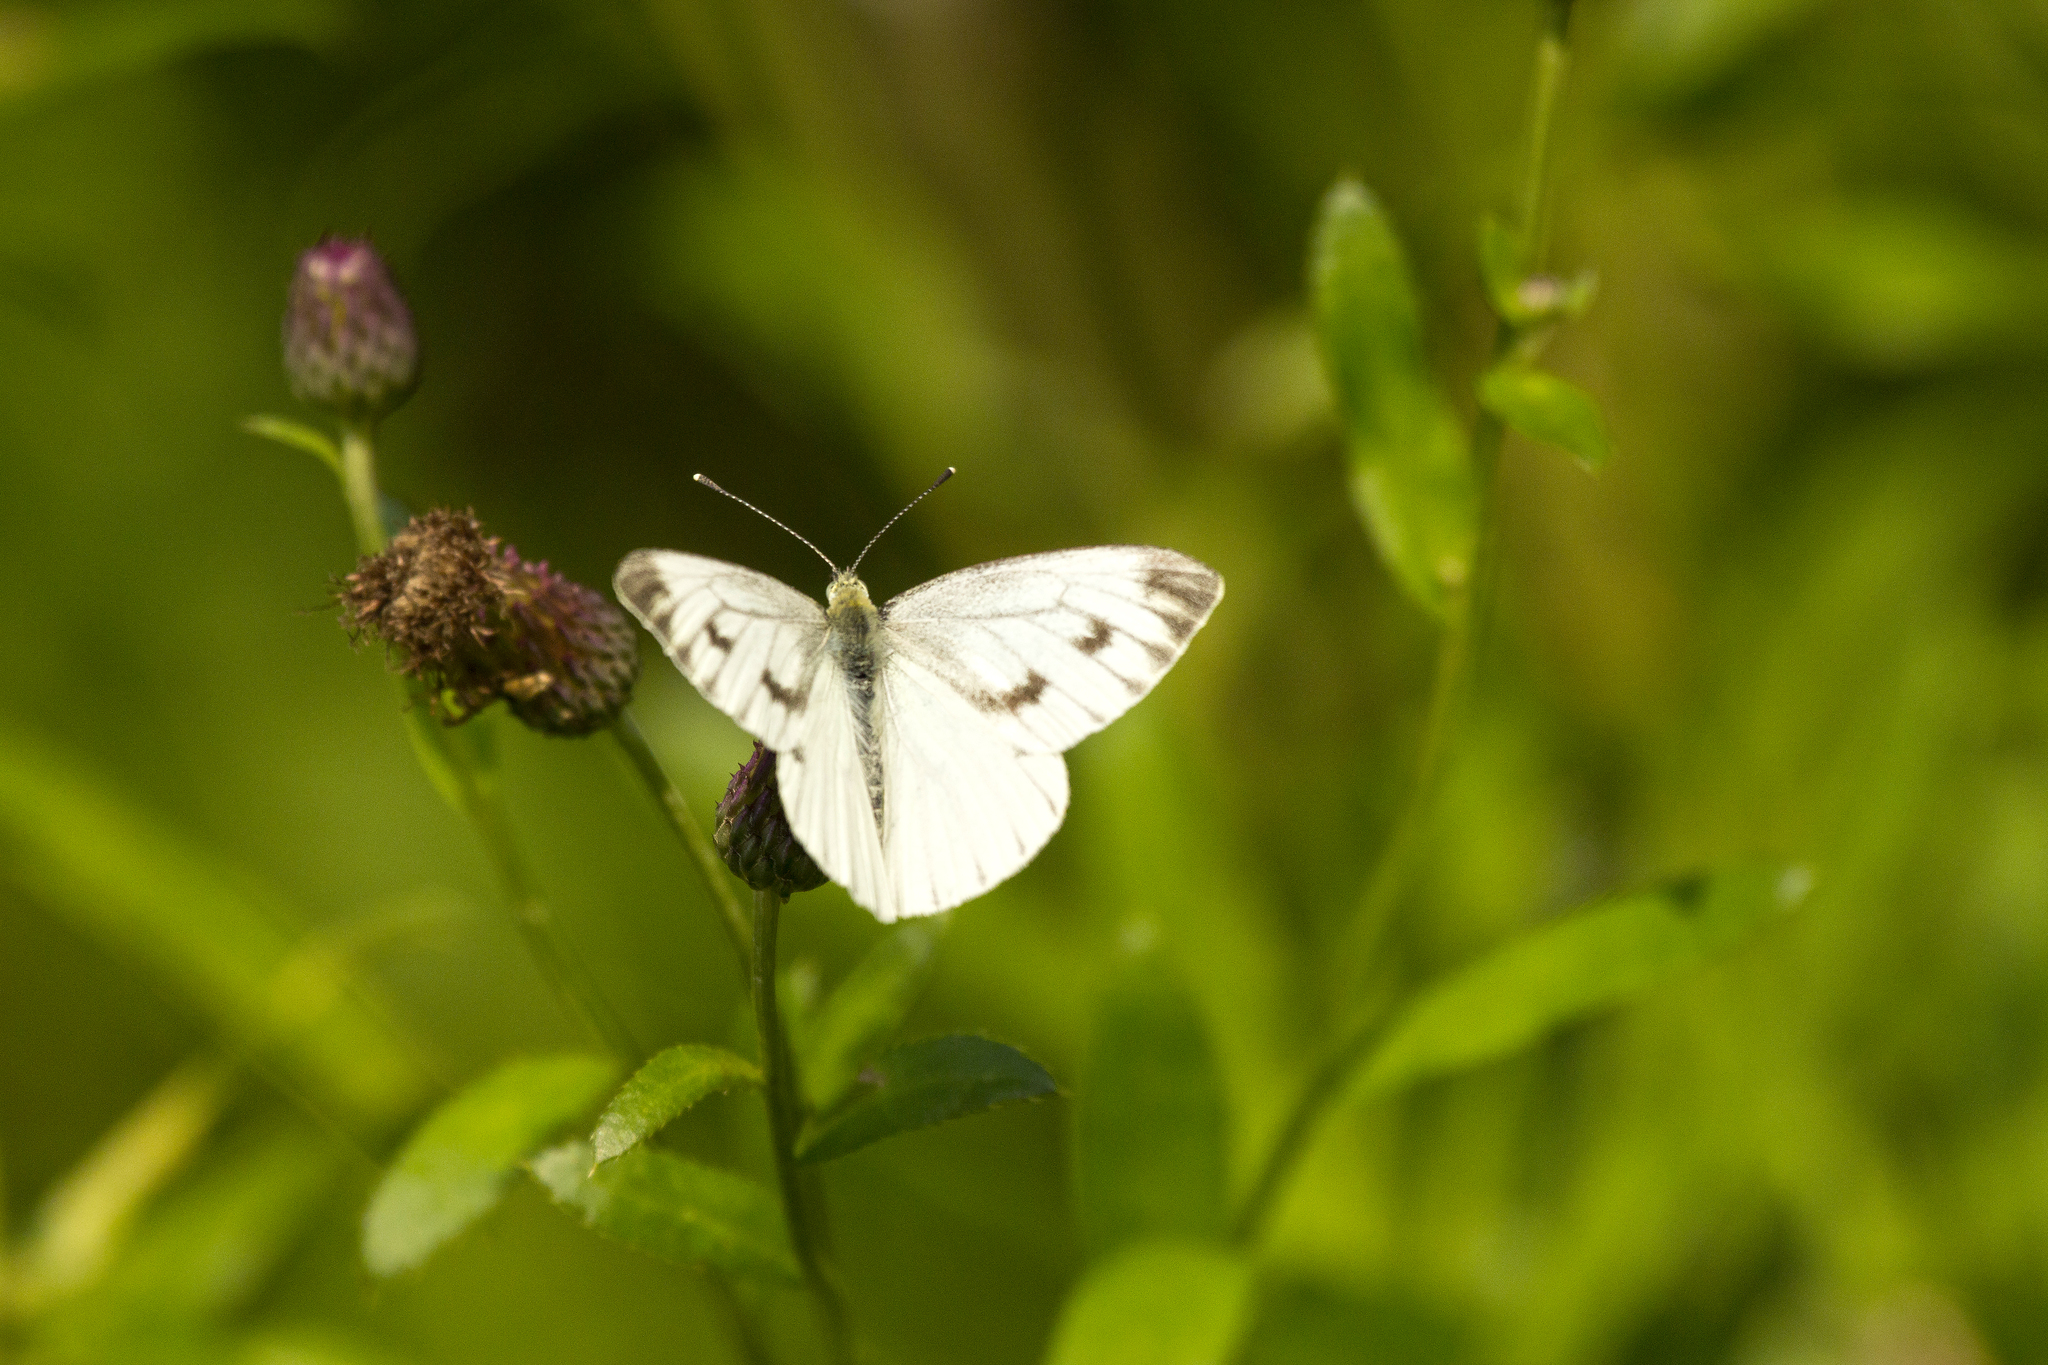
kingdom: Animalia
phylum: Arthropoda
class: Insecta
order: Lepidoptera
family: Pieridae
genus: Pieris
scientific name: Pieris napi
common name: Green-veined white
